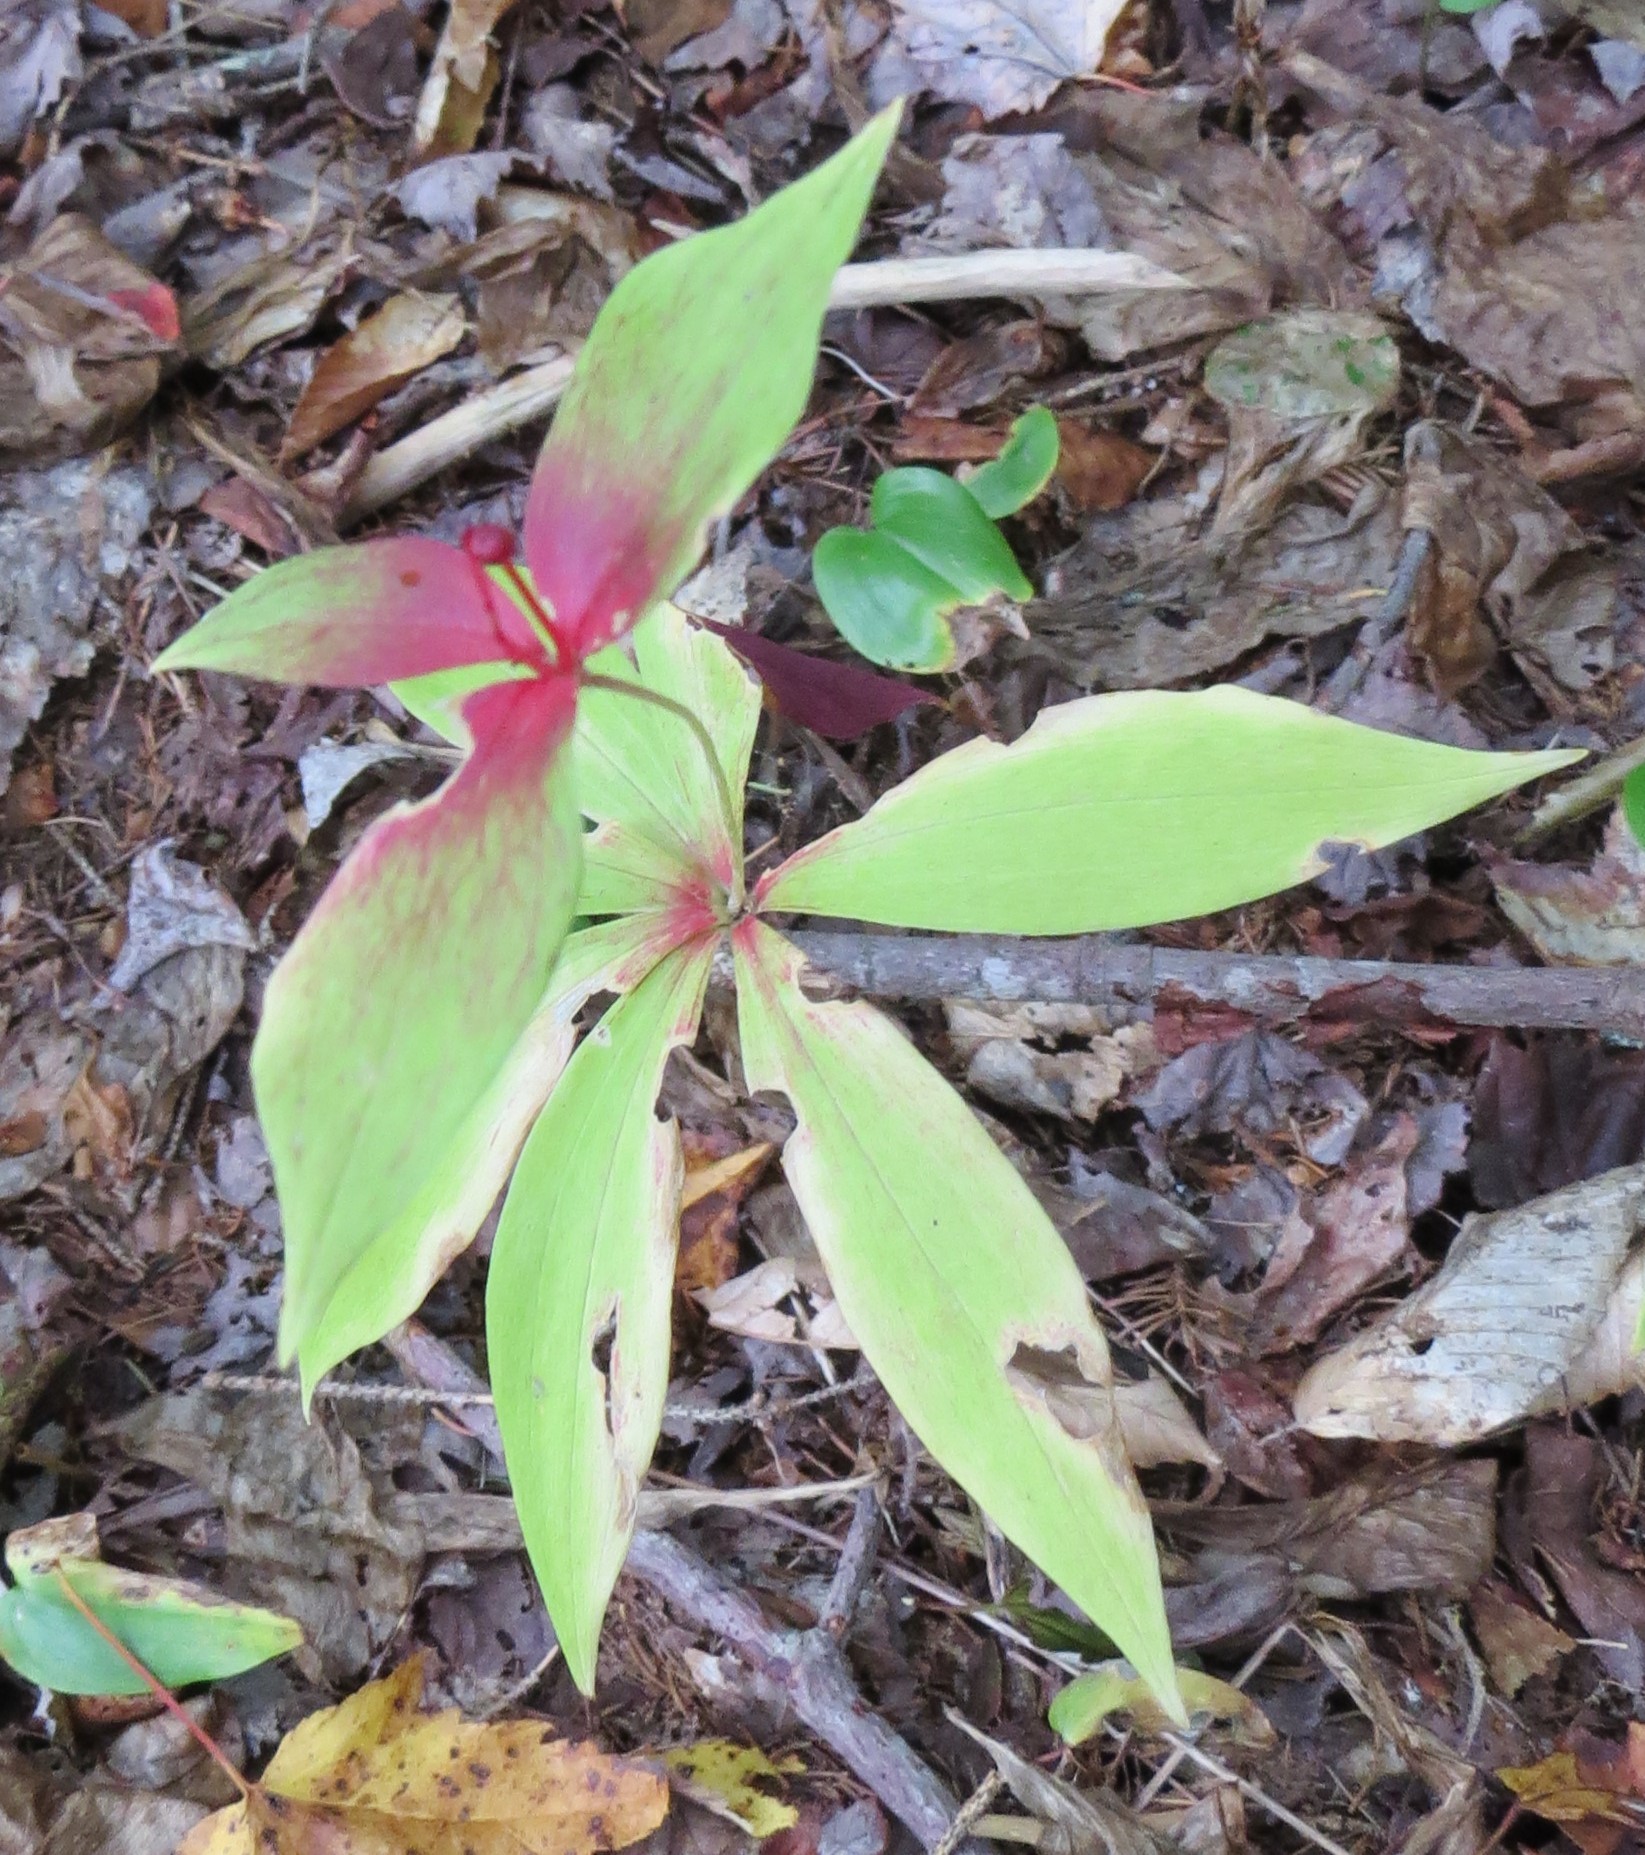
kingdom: Plantae
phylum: Tracheophyta
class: Liliopsida
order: Liliales
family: Liliaceae
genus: Medeola
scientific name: Medeola virginiana
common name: Indian cucumber-root
